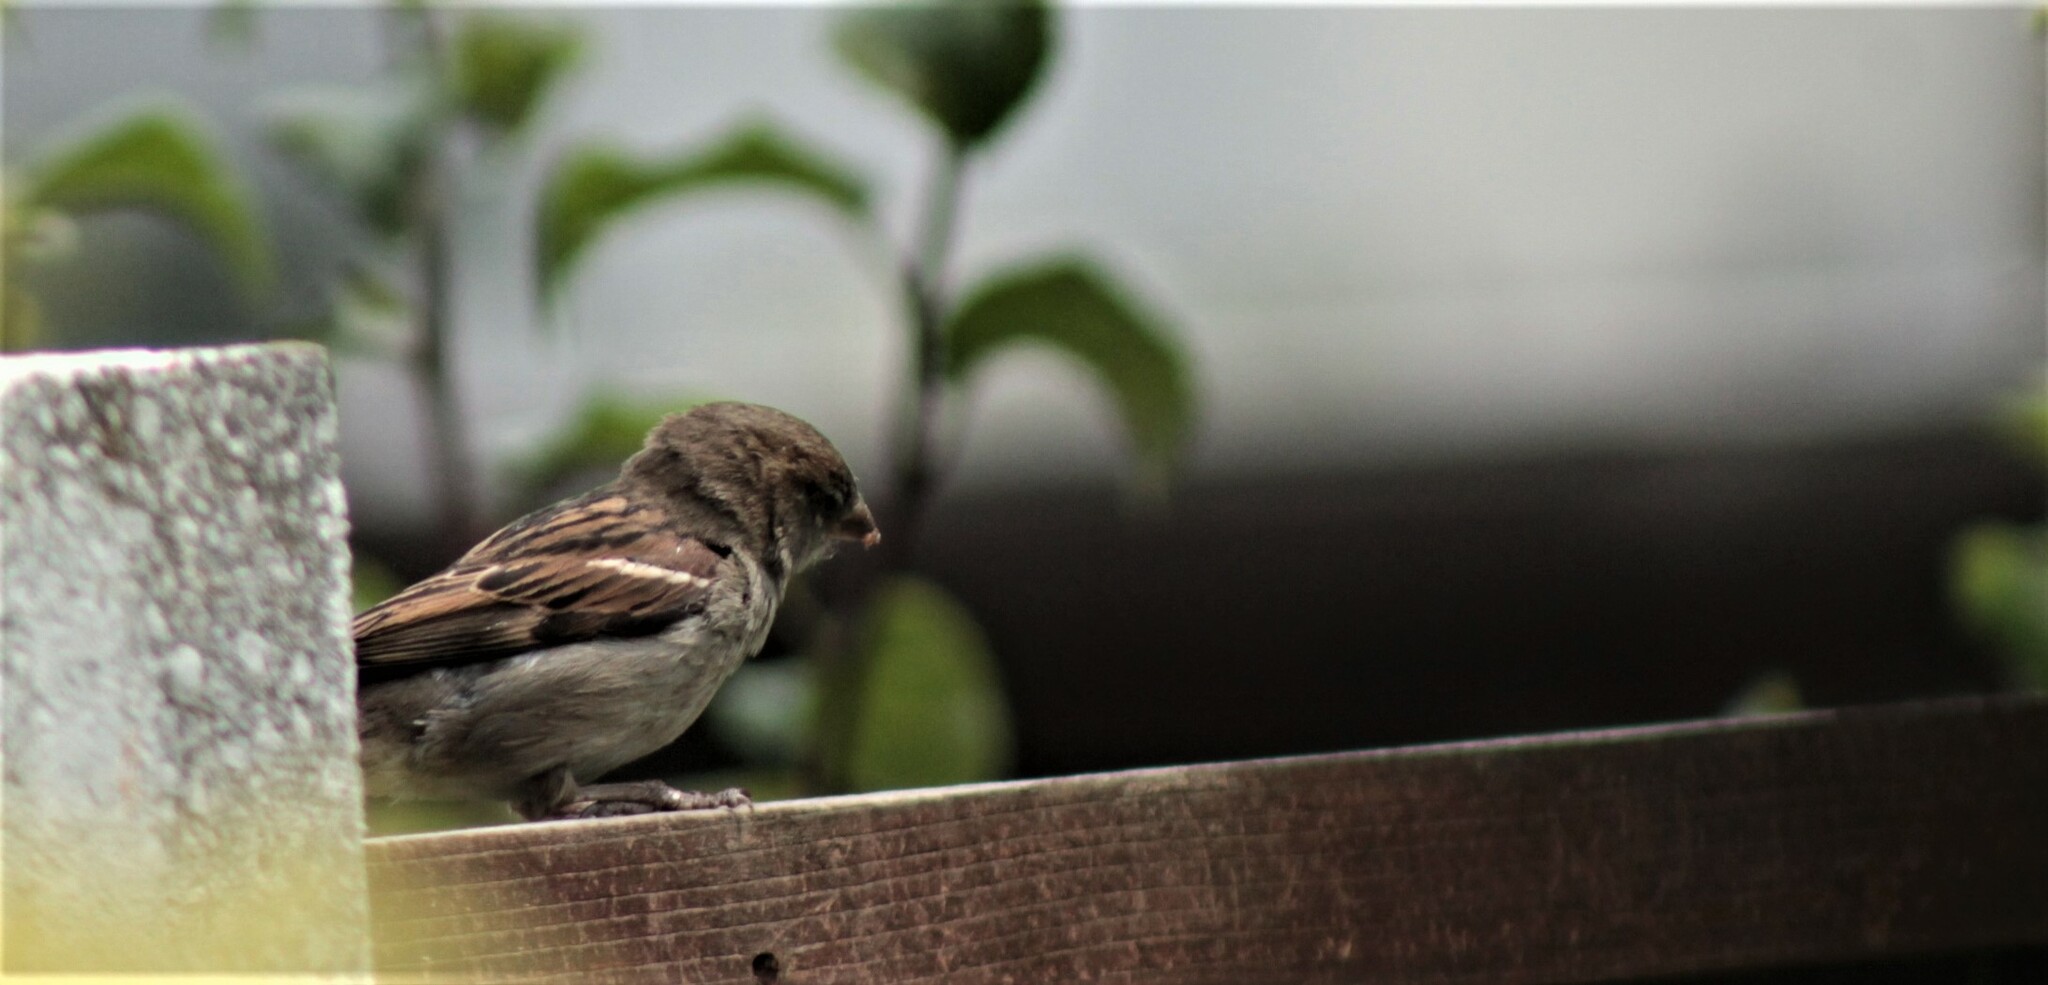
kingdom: Animalia
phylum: Chordata
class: Aves
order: Passeriformes
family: Passeridae
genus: Passer
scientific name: Passer domesticus
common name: House sparrow
